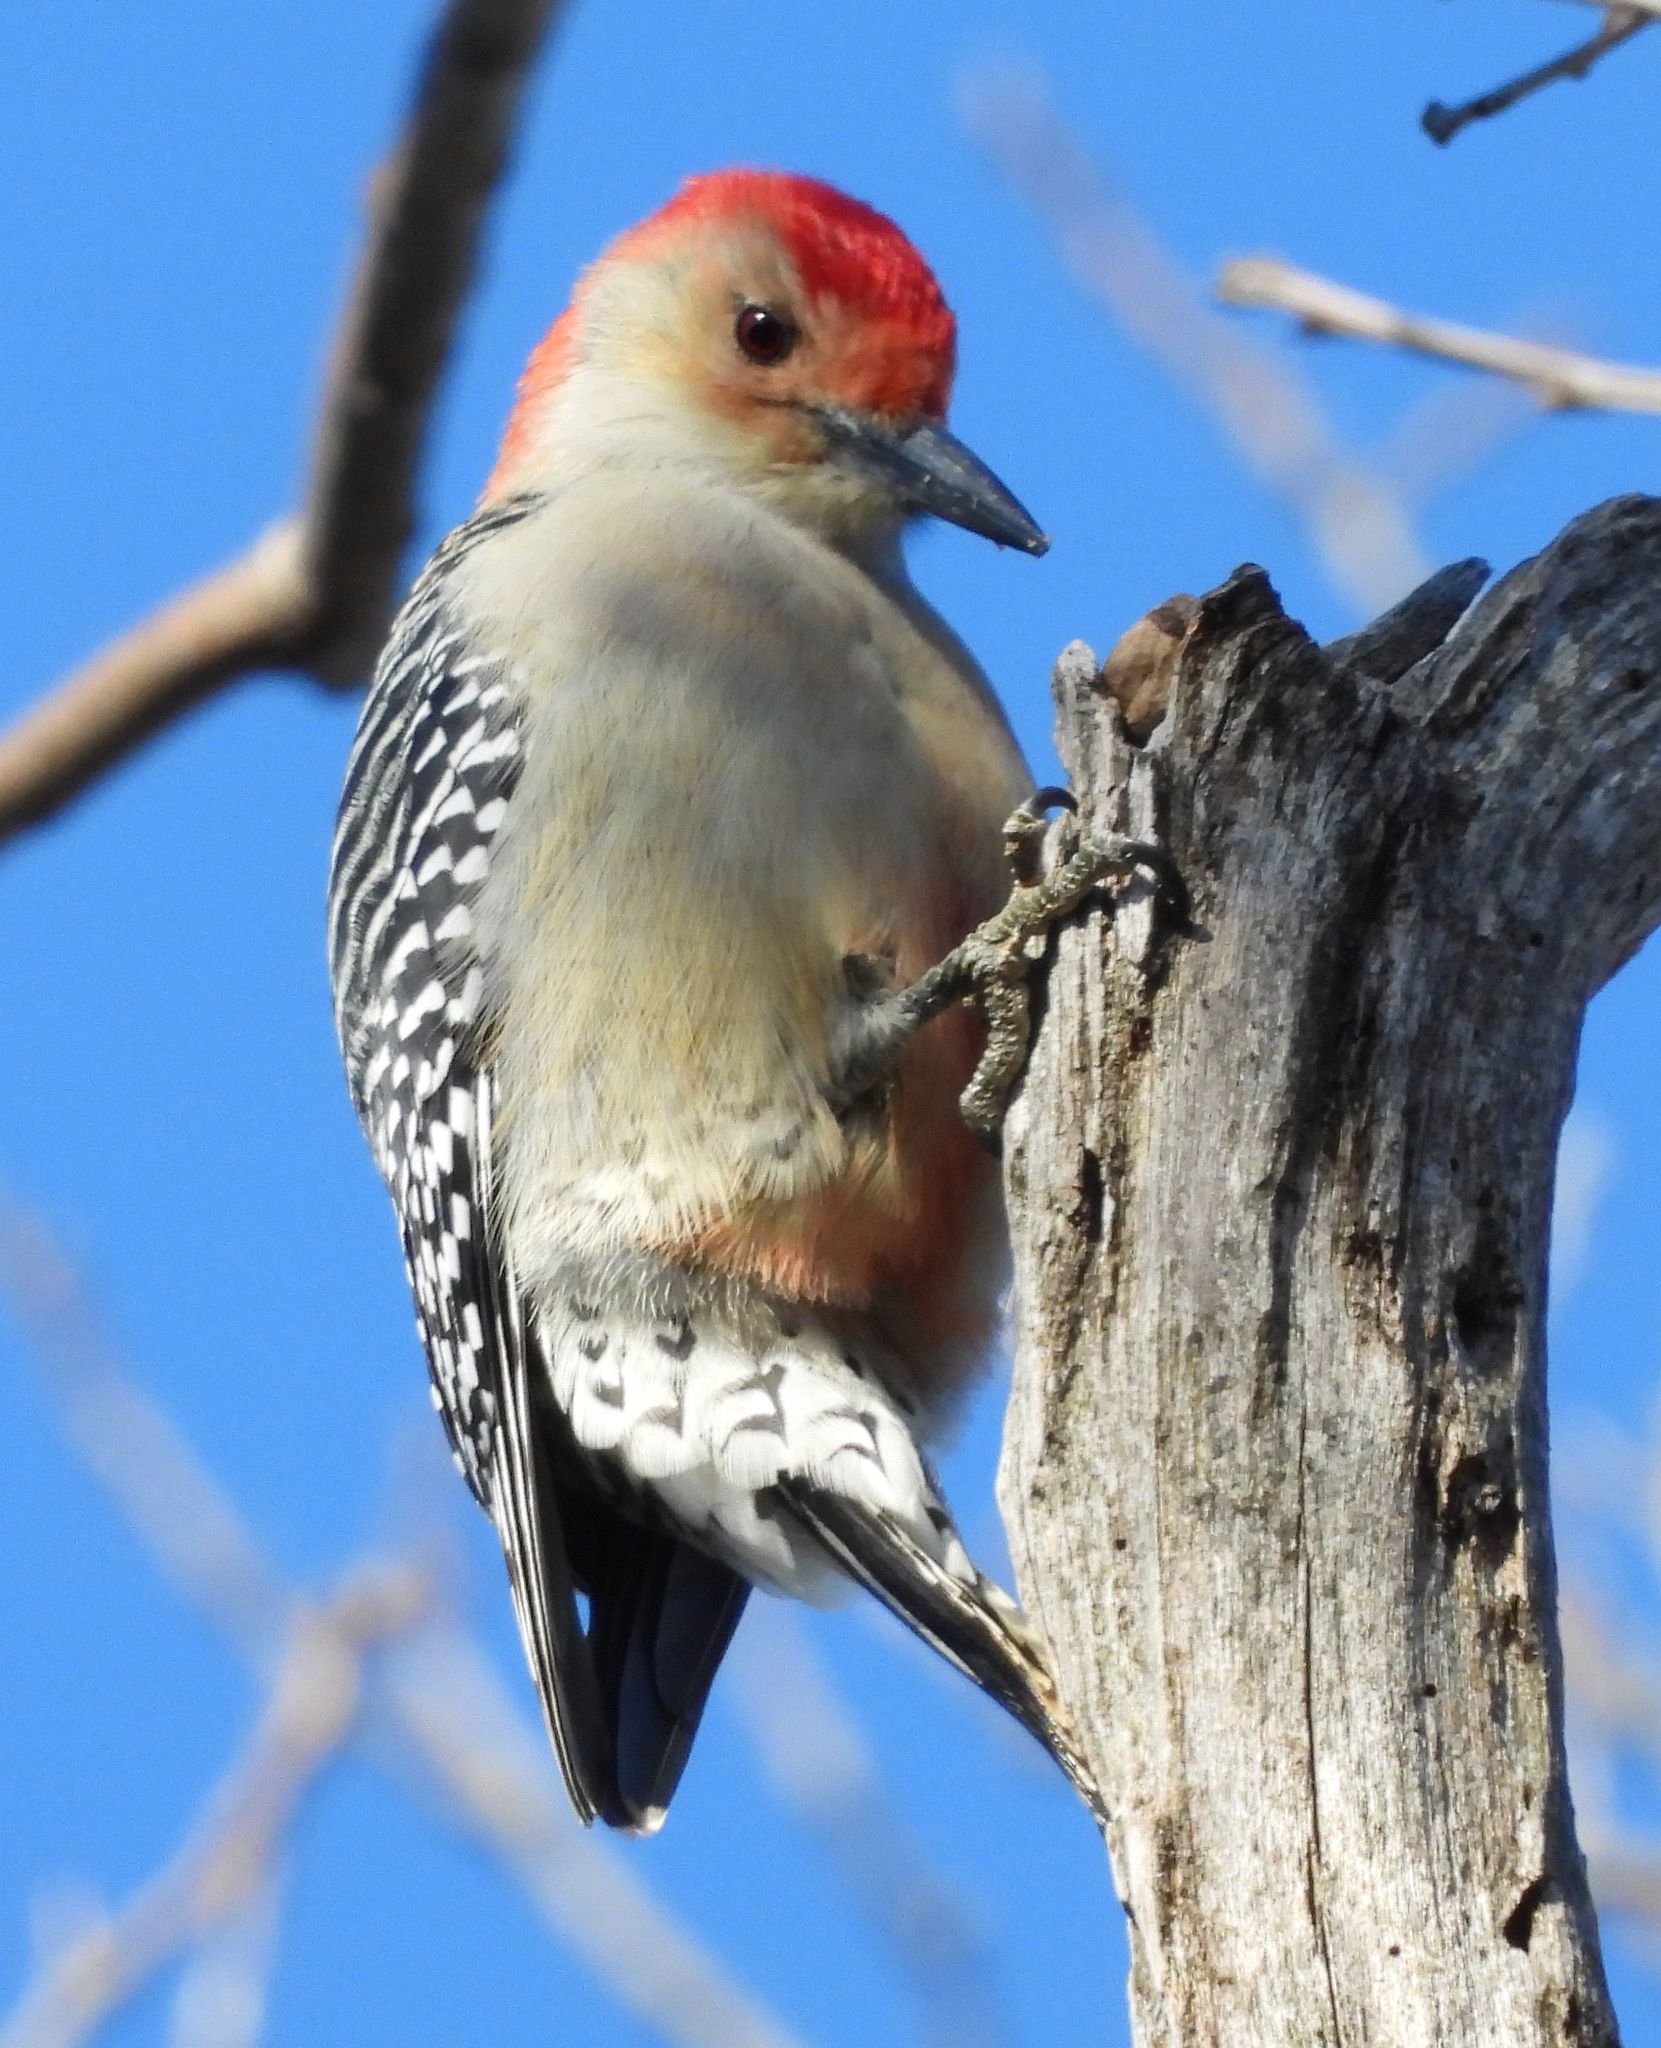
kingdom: Animalia
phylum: Chordata
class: Aves
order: Piciformes
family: Picidae
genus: Melanerpes
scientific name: Melanerpes carolinus
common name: Red-bellied woodpecker
